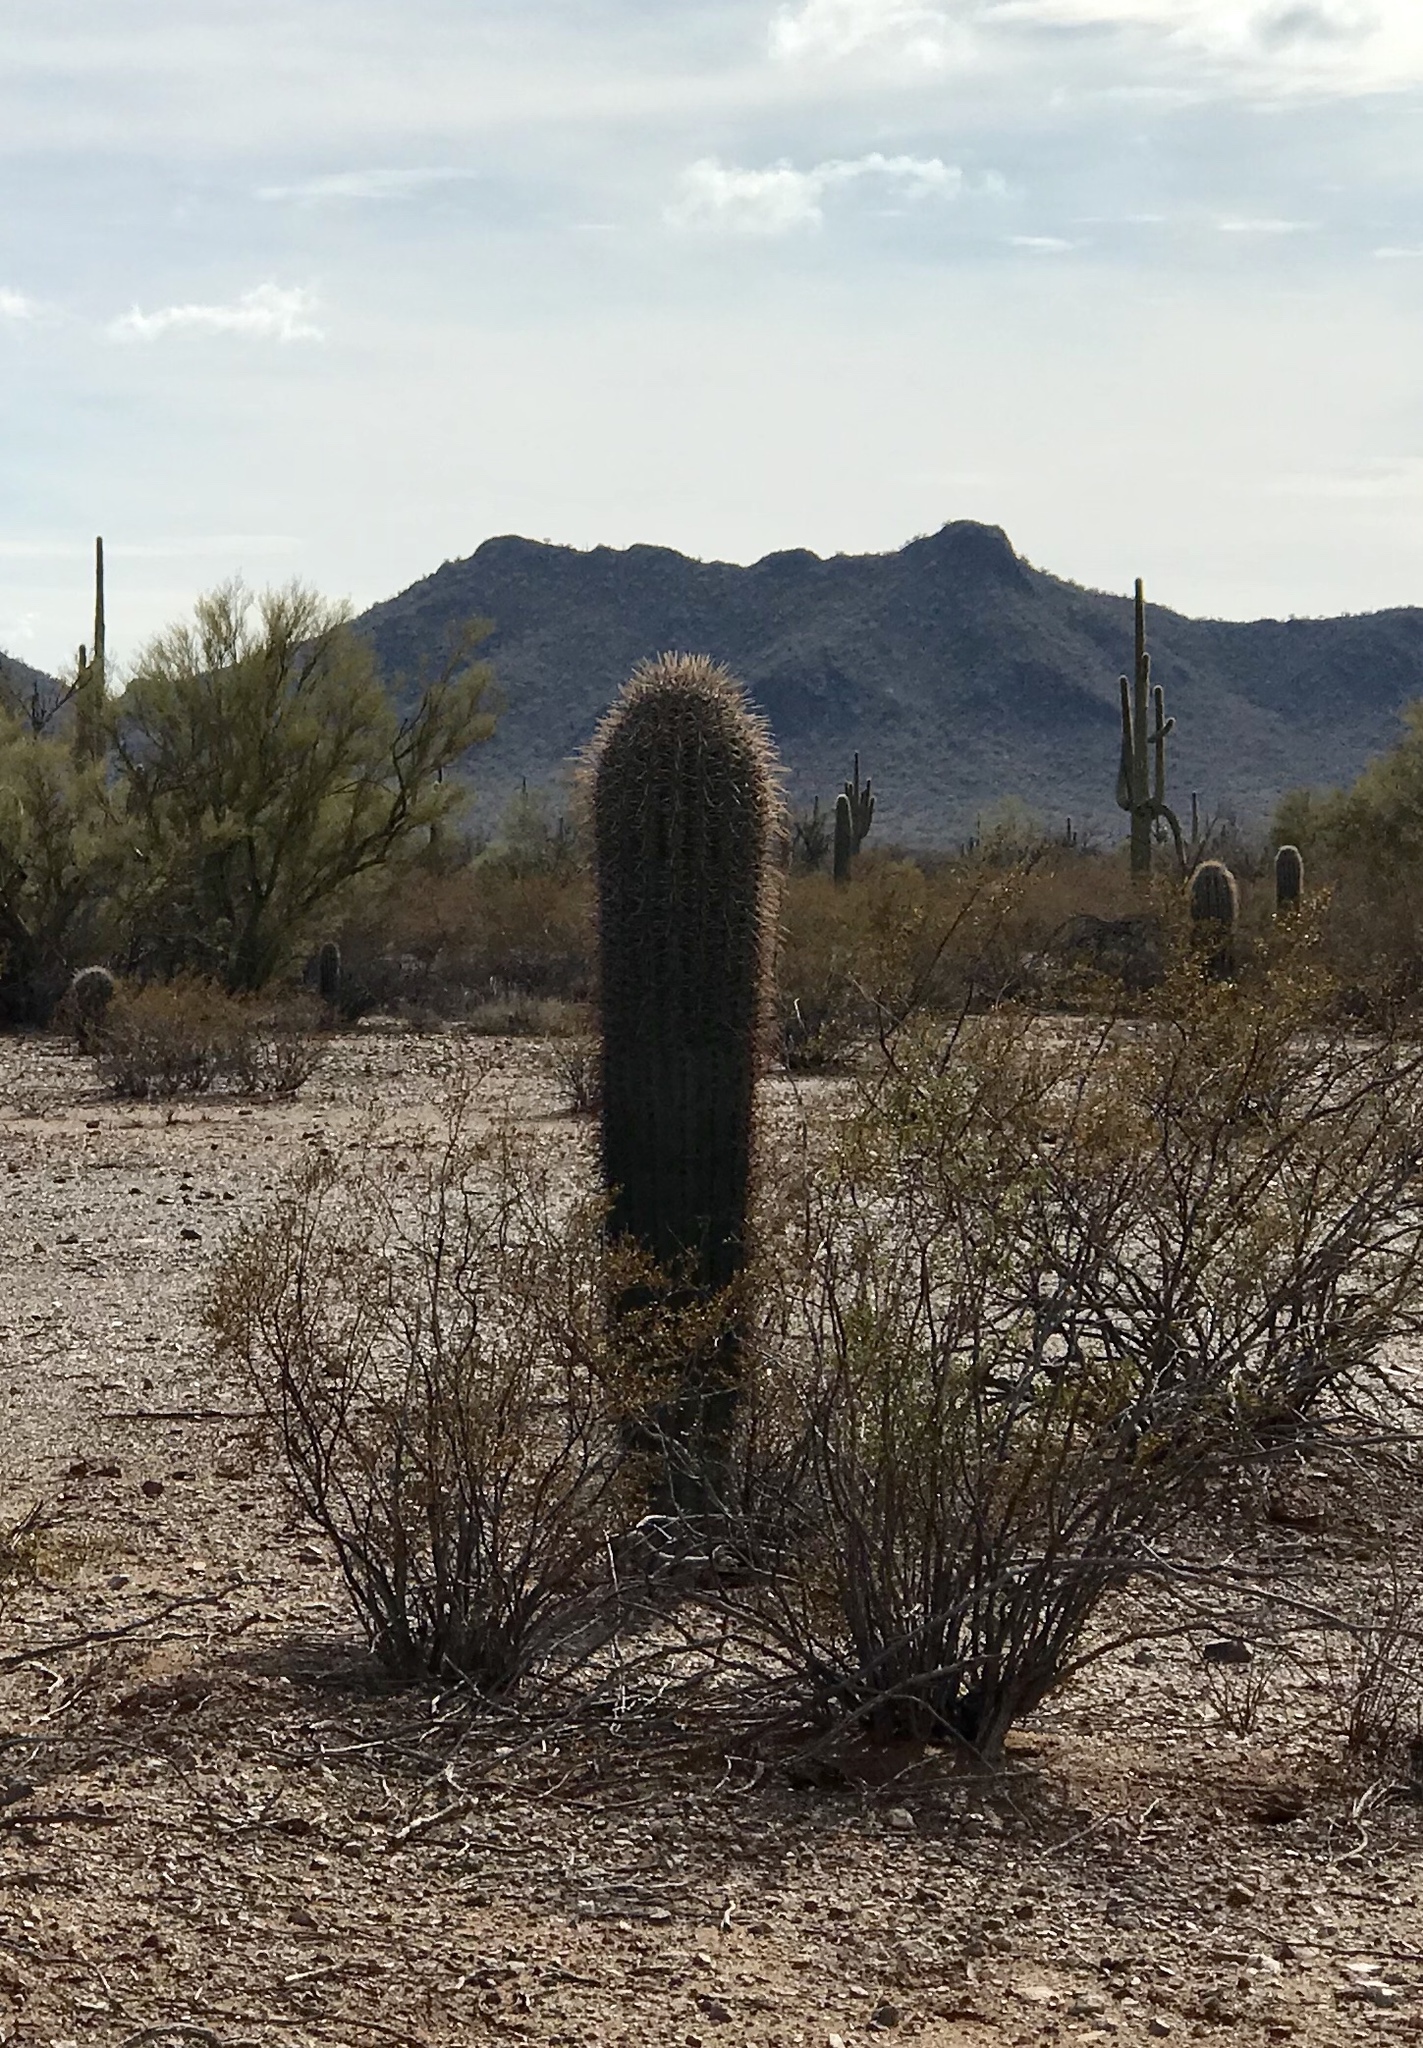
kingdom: Plantae
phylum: Tracheophyta
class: Magnoliopsida
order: Caryophyllales
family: Cactaceae
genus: Carnegiea
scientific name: Carnegiea gigantea
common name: Saguaro
